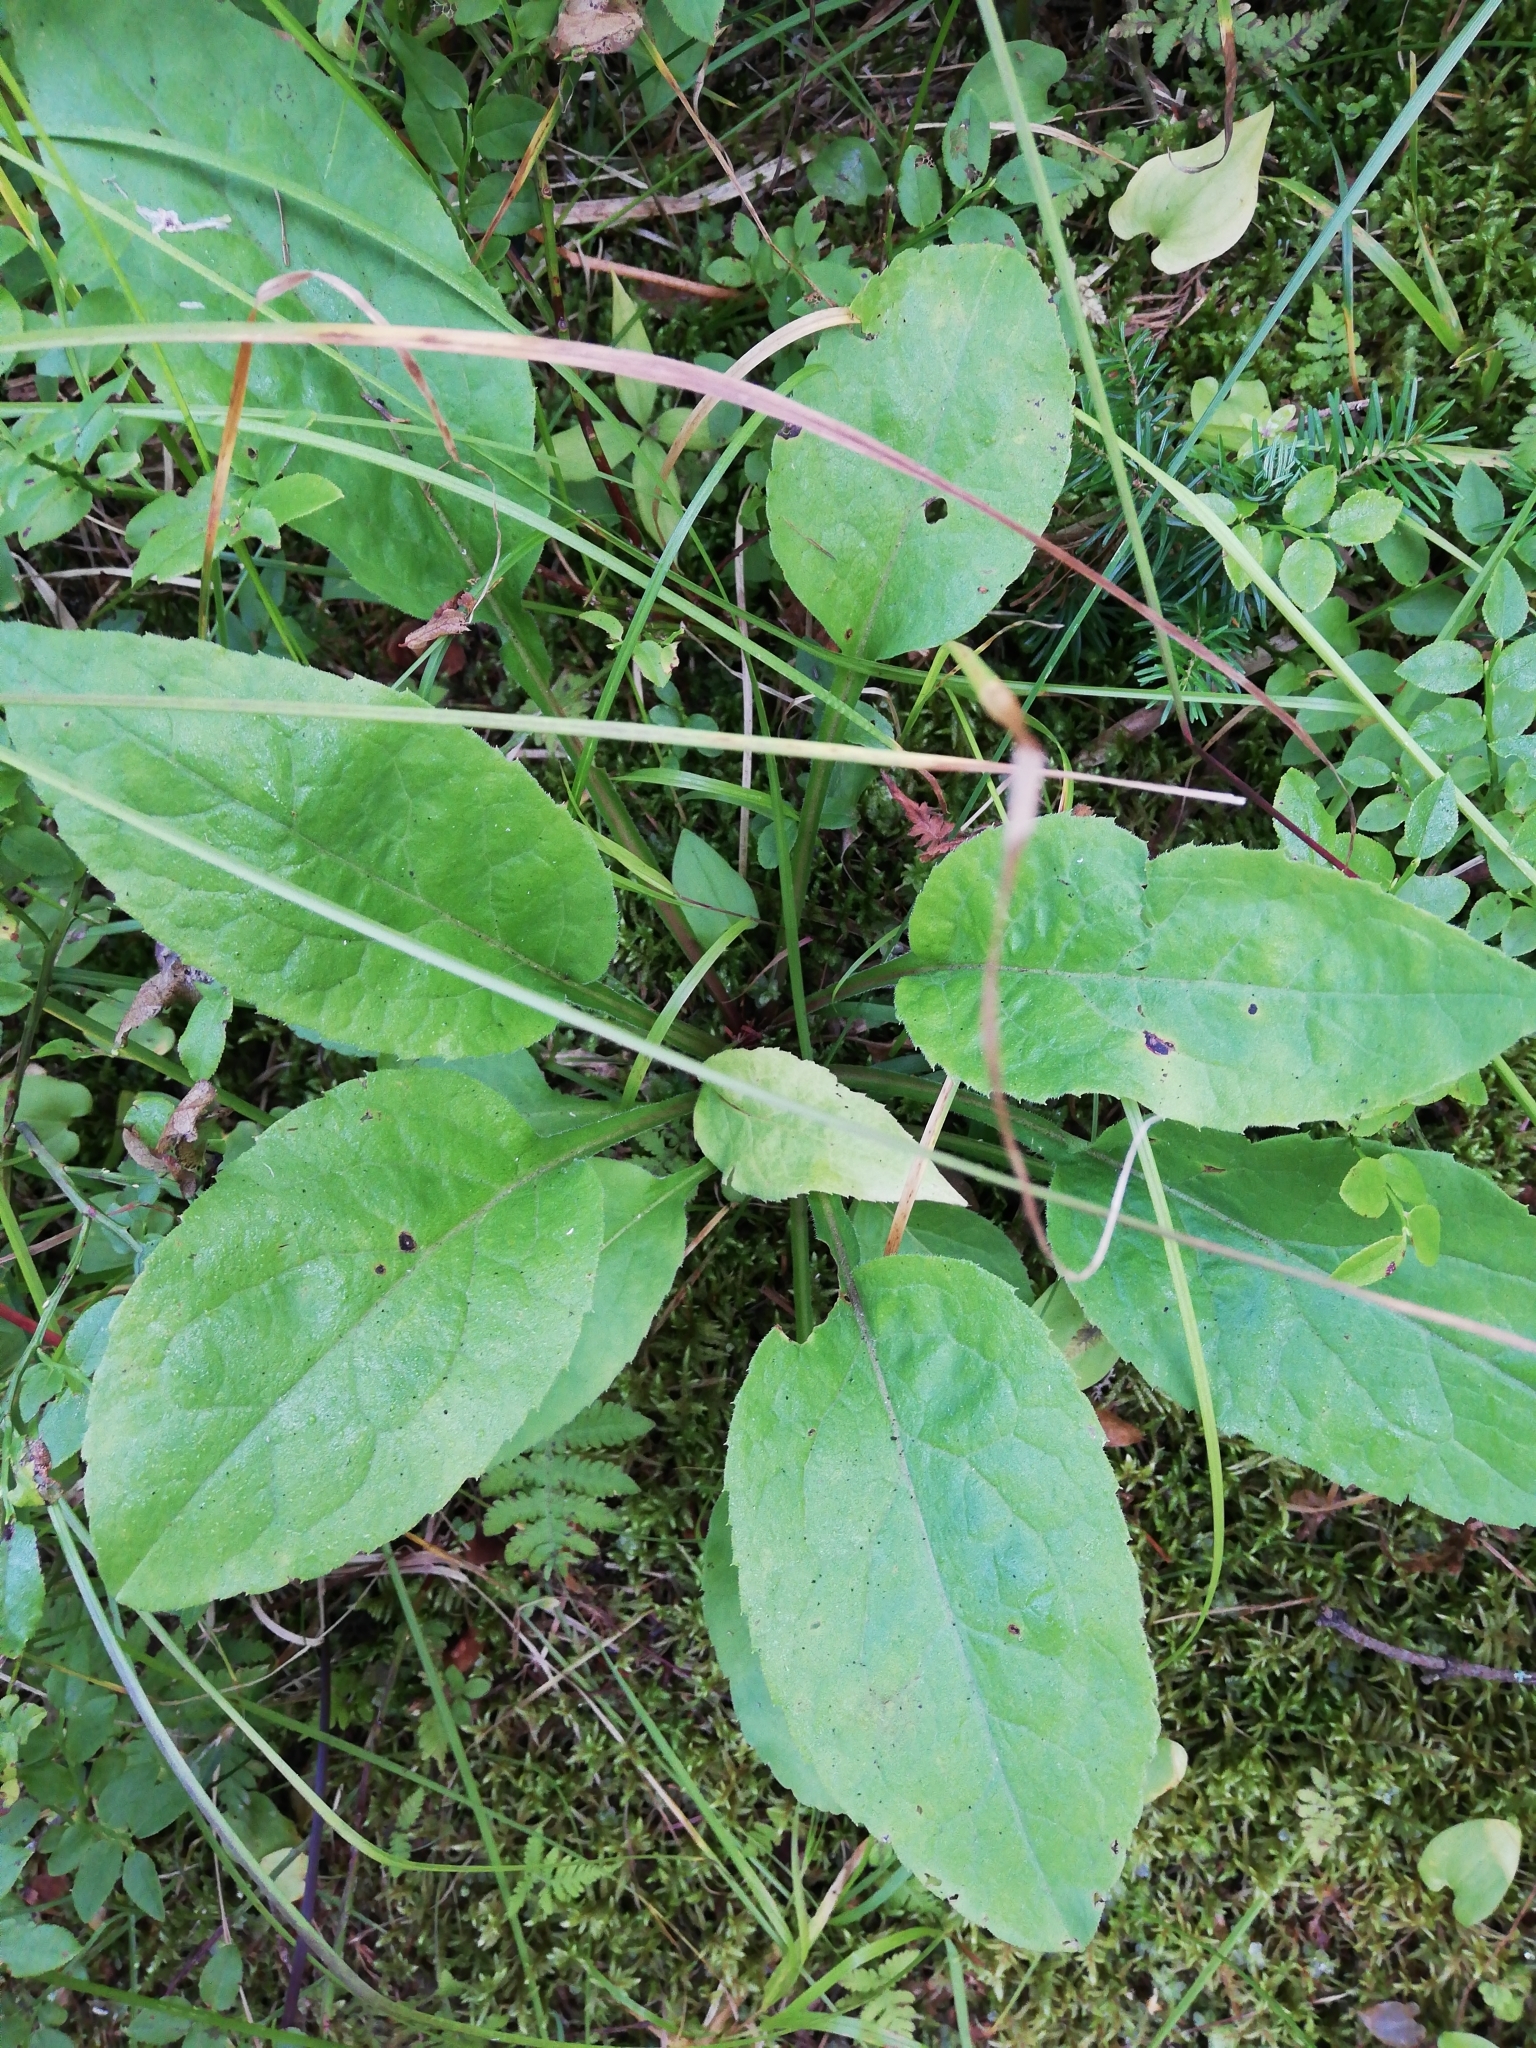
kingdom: Plantae
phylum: Tracheophyta
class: Magnoliopsida
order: Asterales
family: Asteraceae
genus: Solidago
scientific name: Solidago virgaurea
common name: Goldenrod
